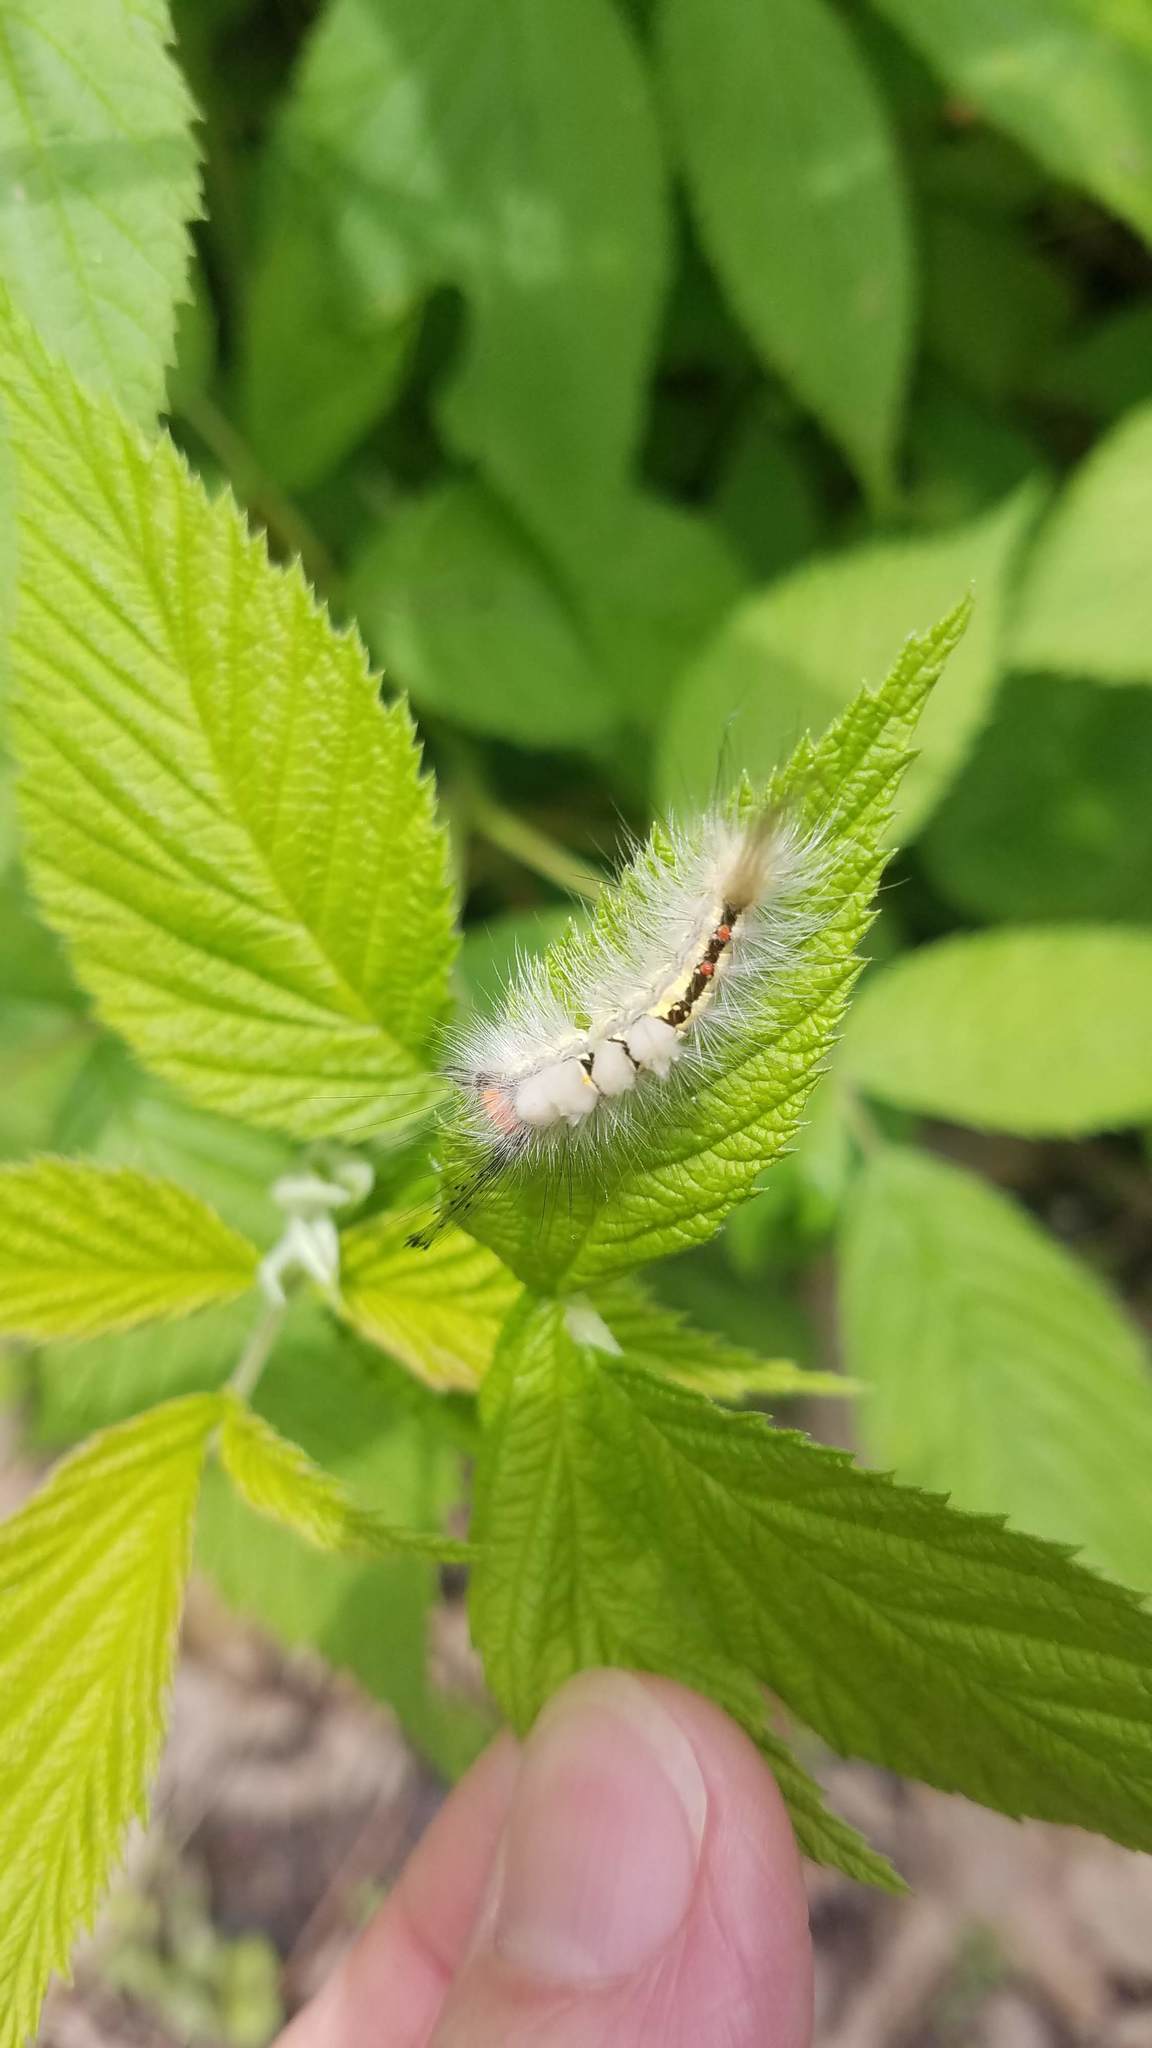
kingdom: Animalia
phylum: Arthropoda
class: Insecta
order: Lepidoptera
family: Erebidae
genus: Orgyia
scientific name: Orgyia leucostigma
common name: White-marked tussock moth
